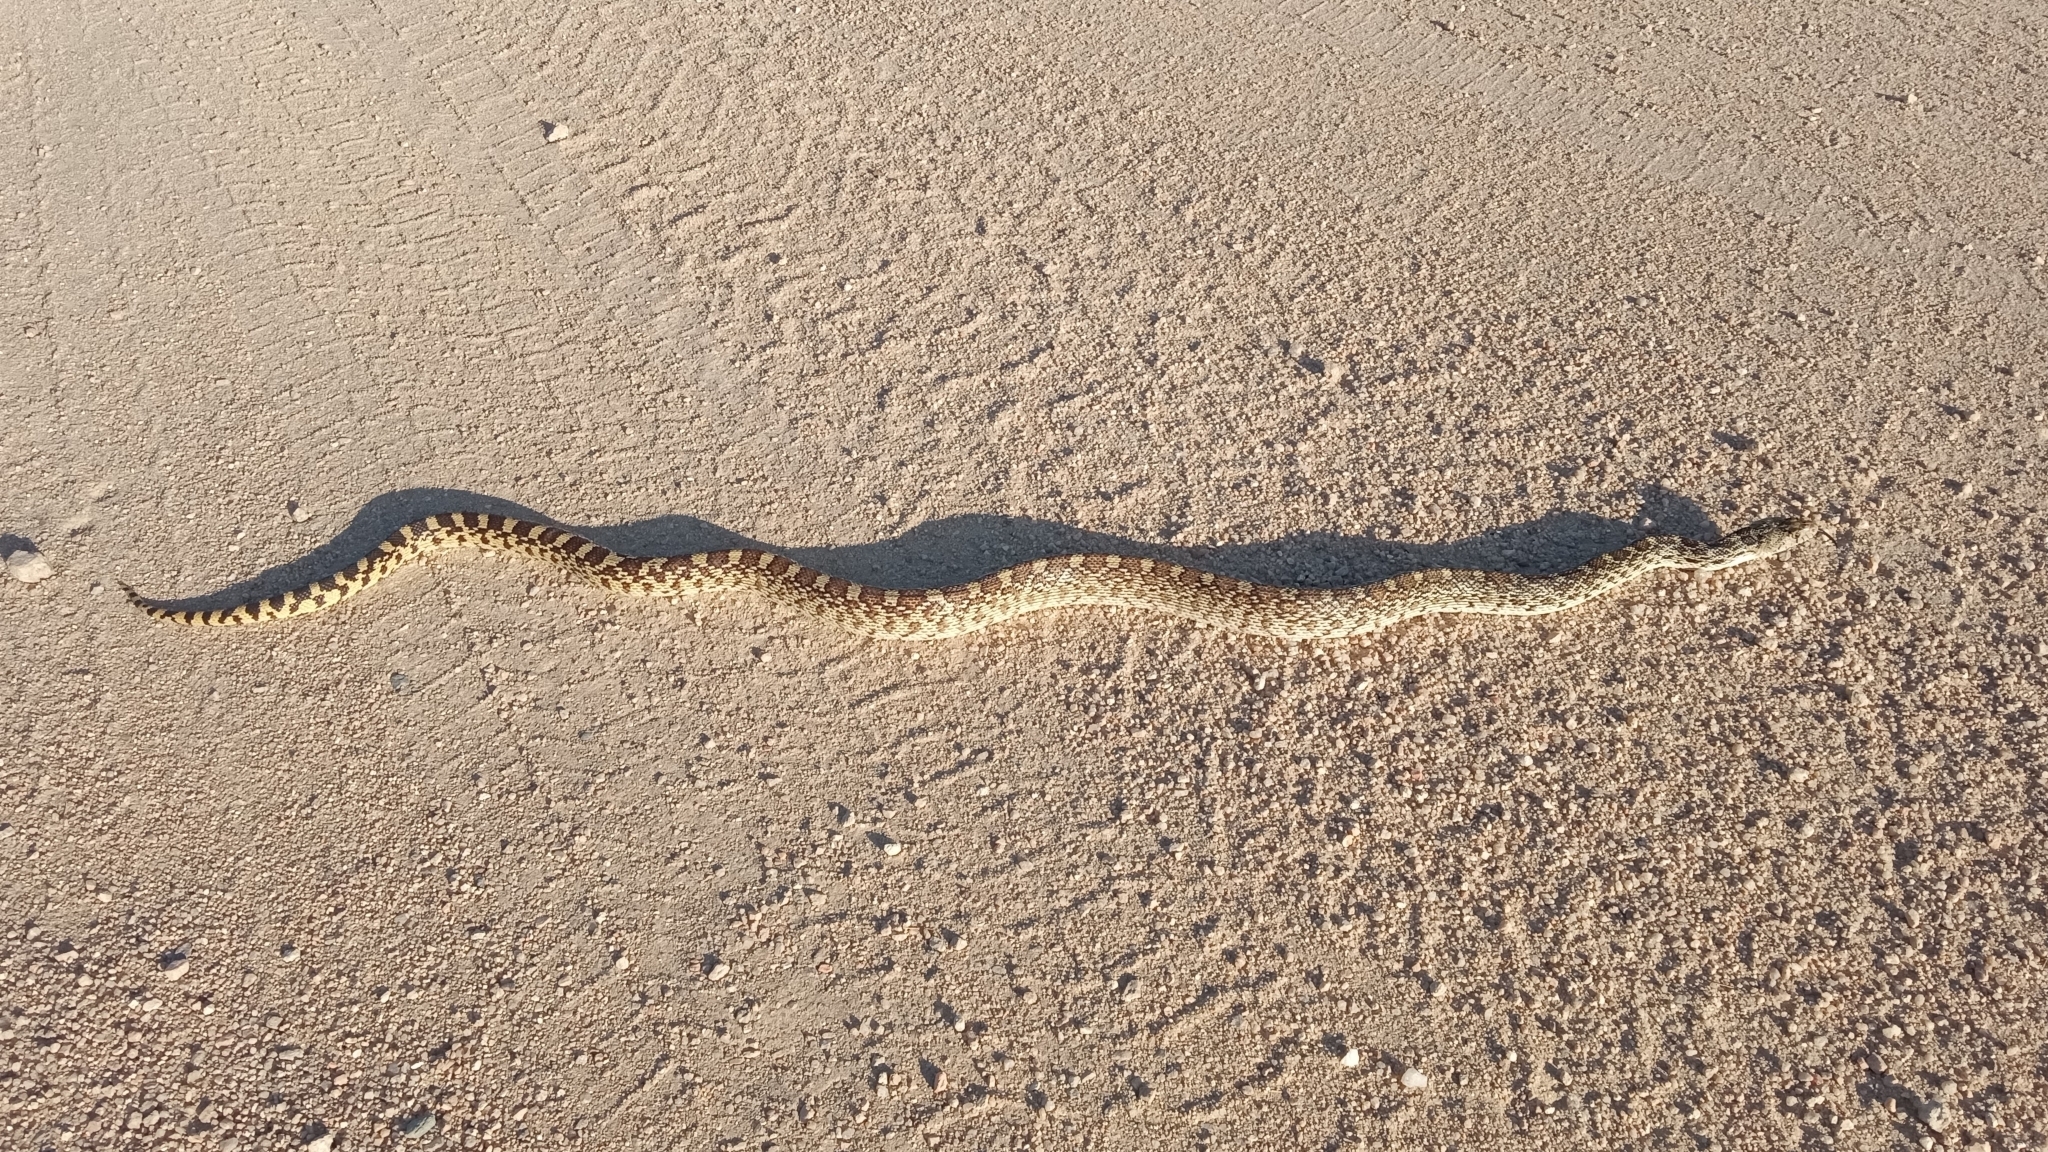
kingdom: Animalia
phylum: Chordata
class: Squamata
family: Colubridae
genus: Pituophis
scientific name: Pituophis catenifer
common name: Gopher snake
